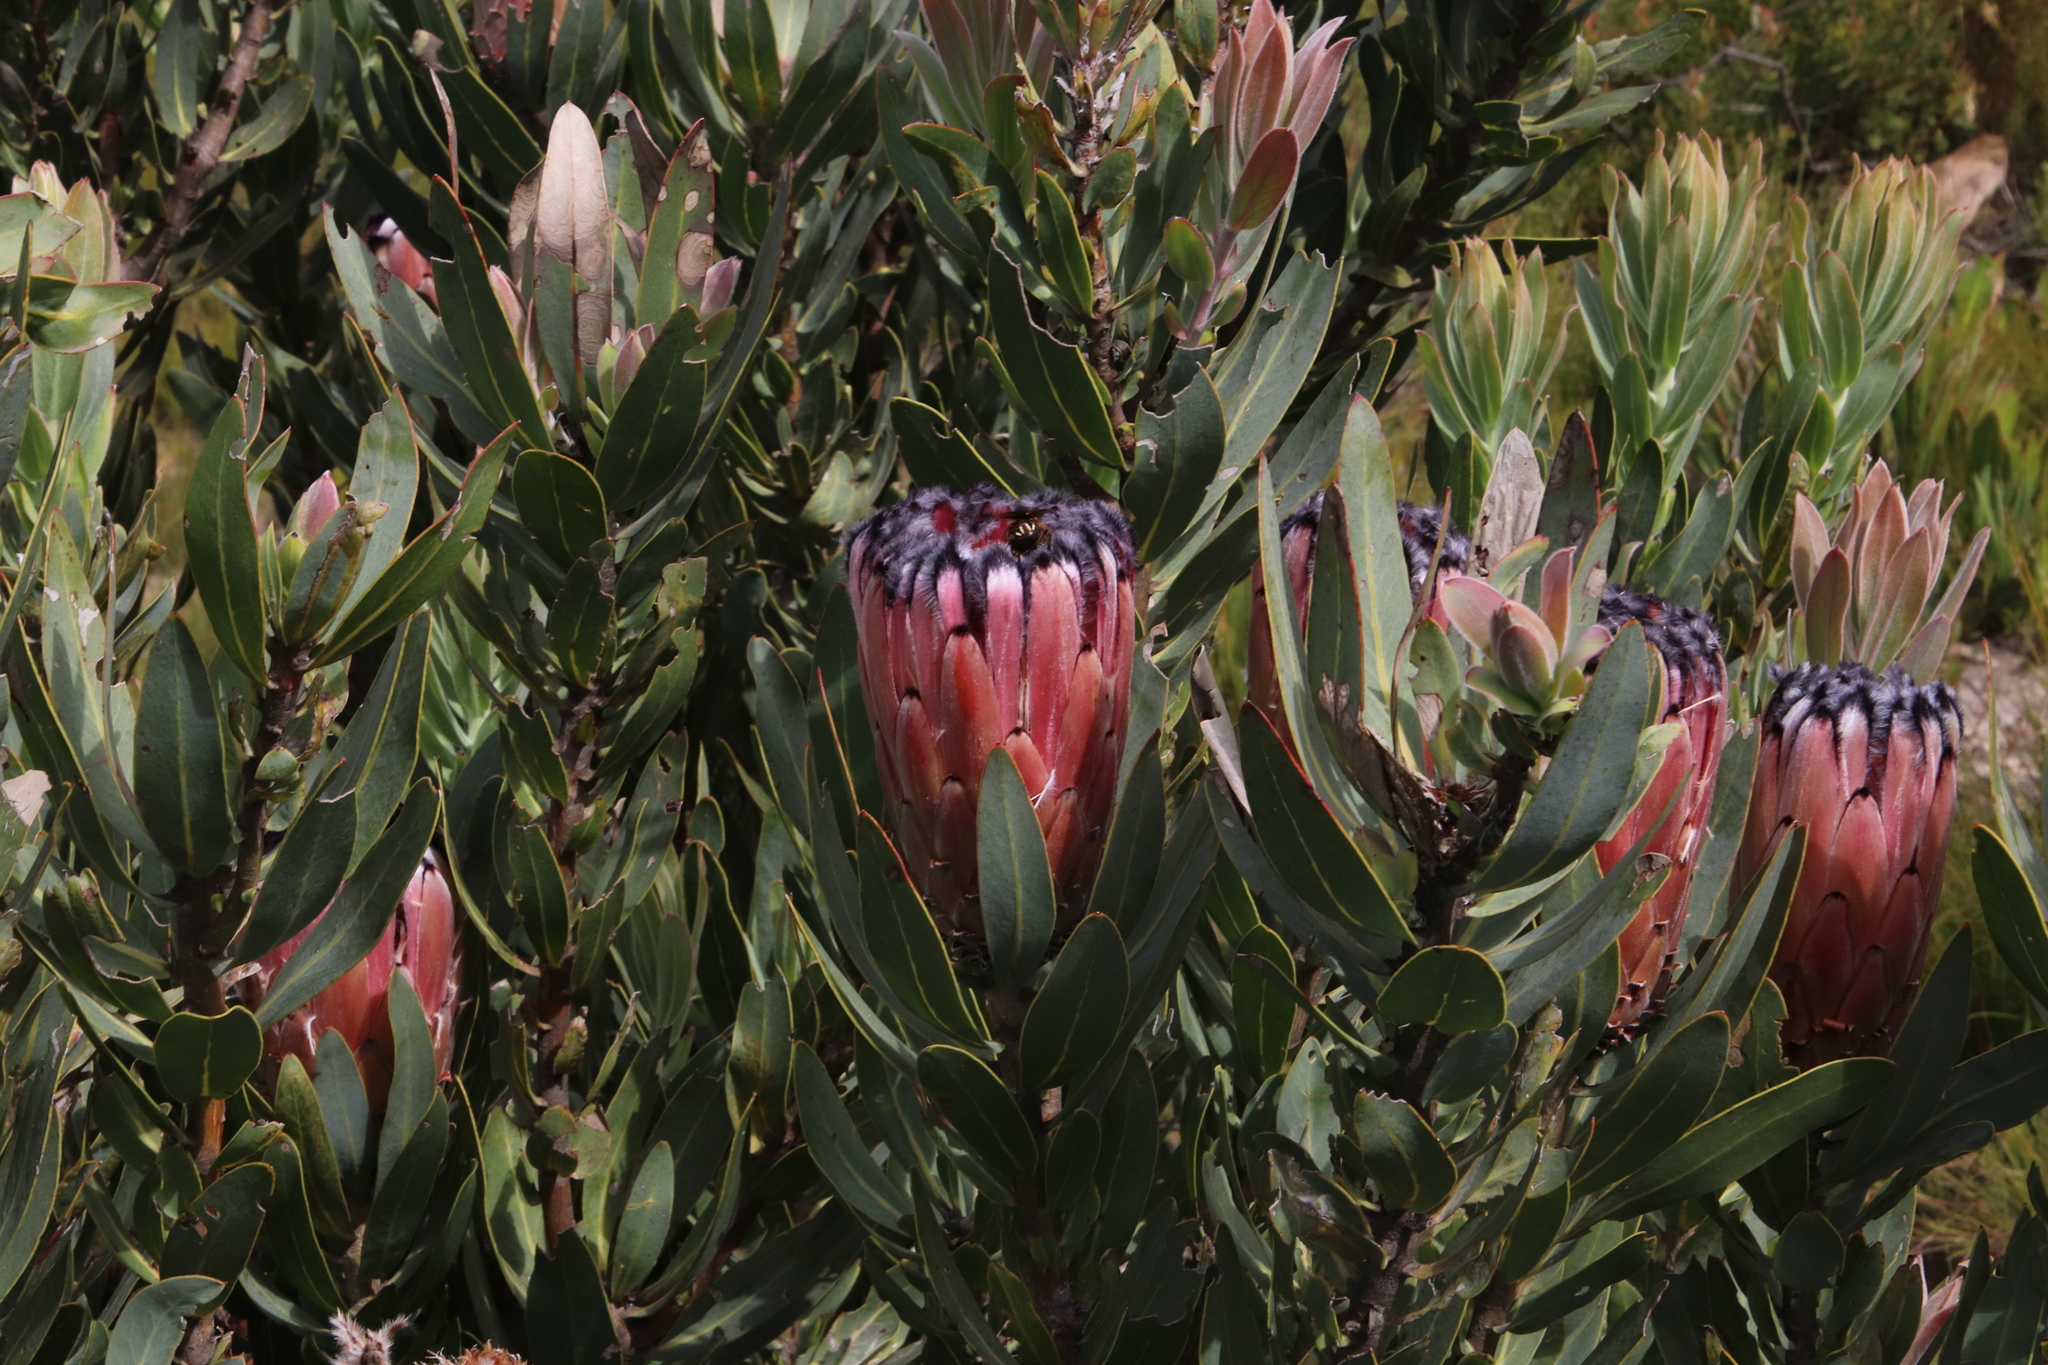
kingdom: Plantae
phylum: Tracheophyta
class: Magnoliopsida
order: Proteales
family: Proteaceae
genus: Protea
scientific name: Protea laurifolia
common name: Grey-leaf sugarbsh
